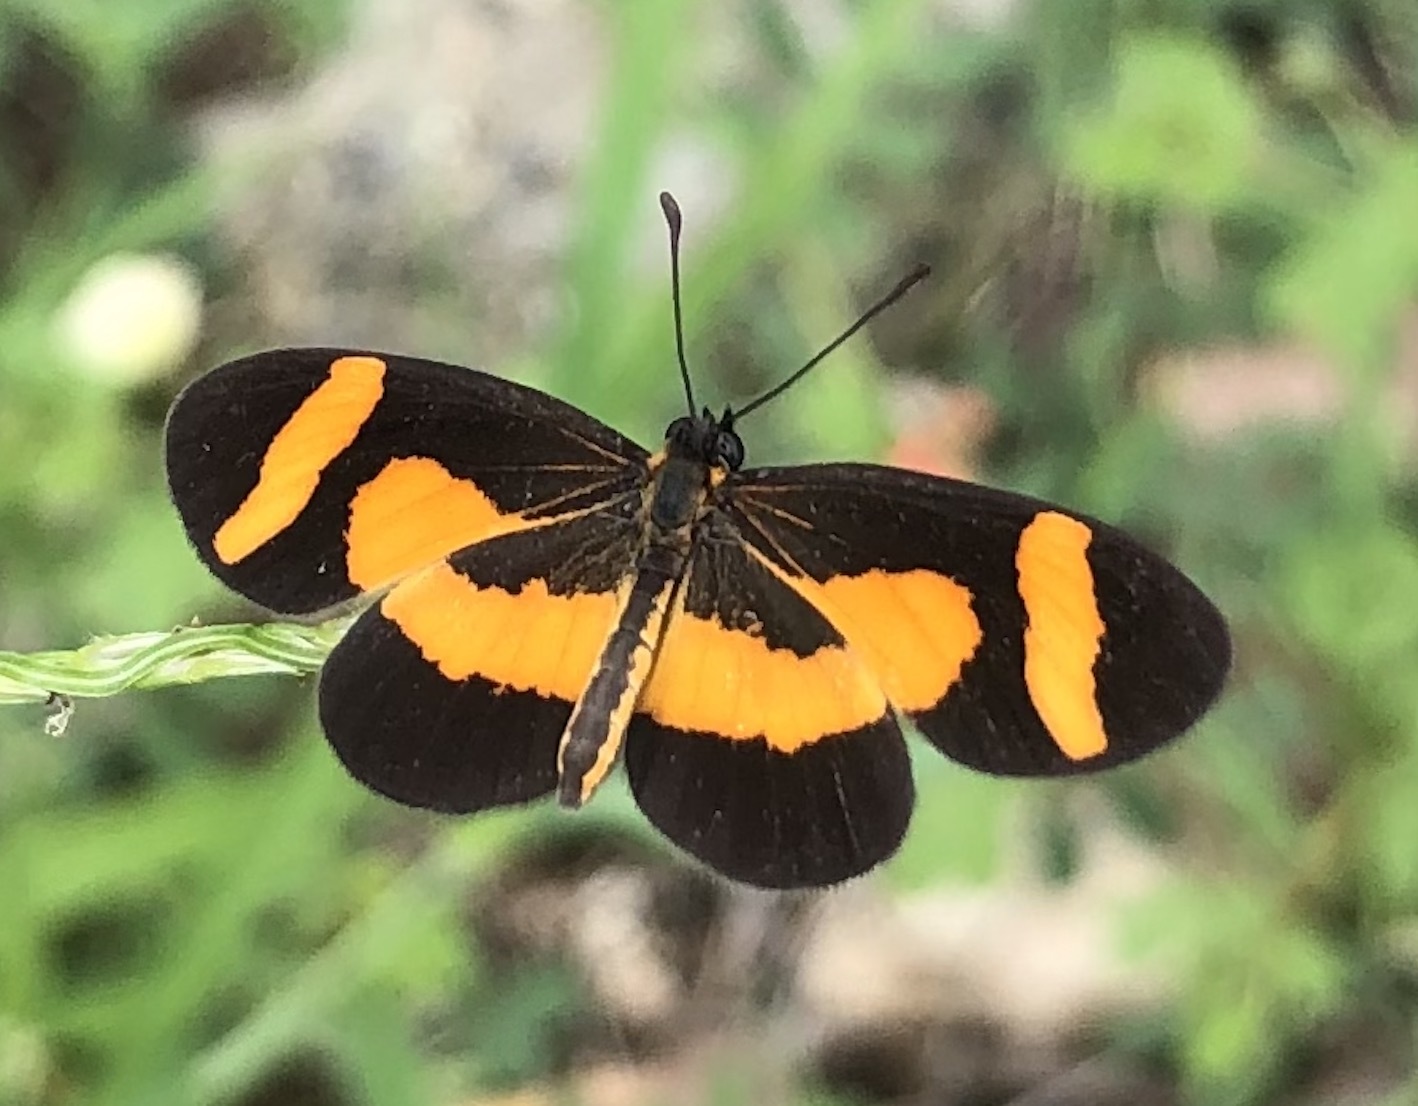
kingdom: Animalia
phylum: Arthropoda
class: Insecta
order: Lepidoptera
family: Nymphalidae
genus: Microtia
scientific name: Microtia elva
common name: Elf
